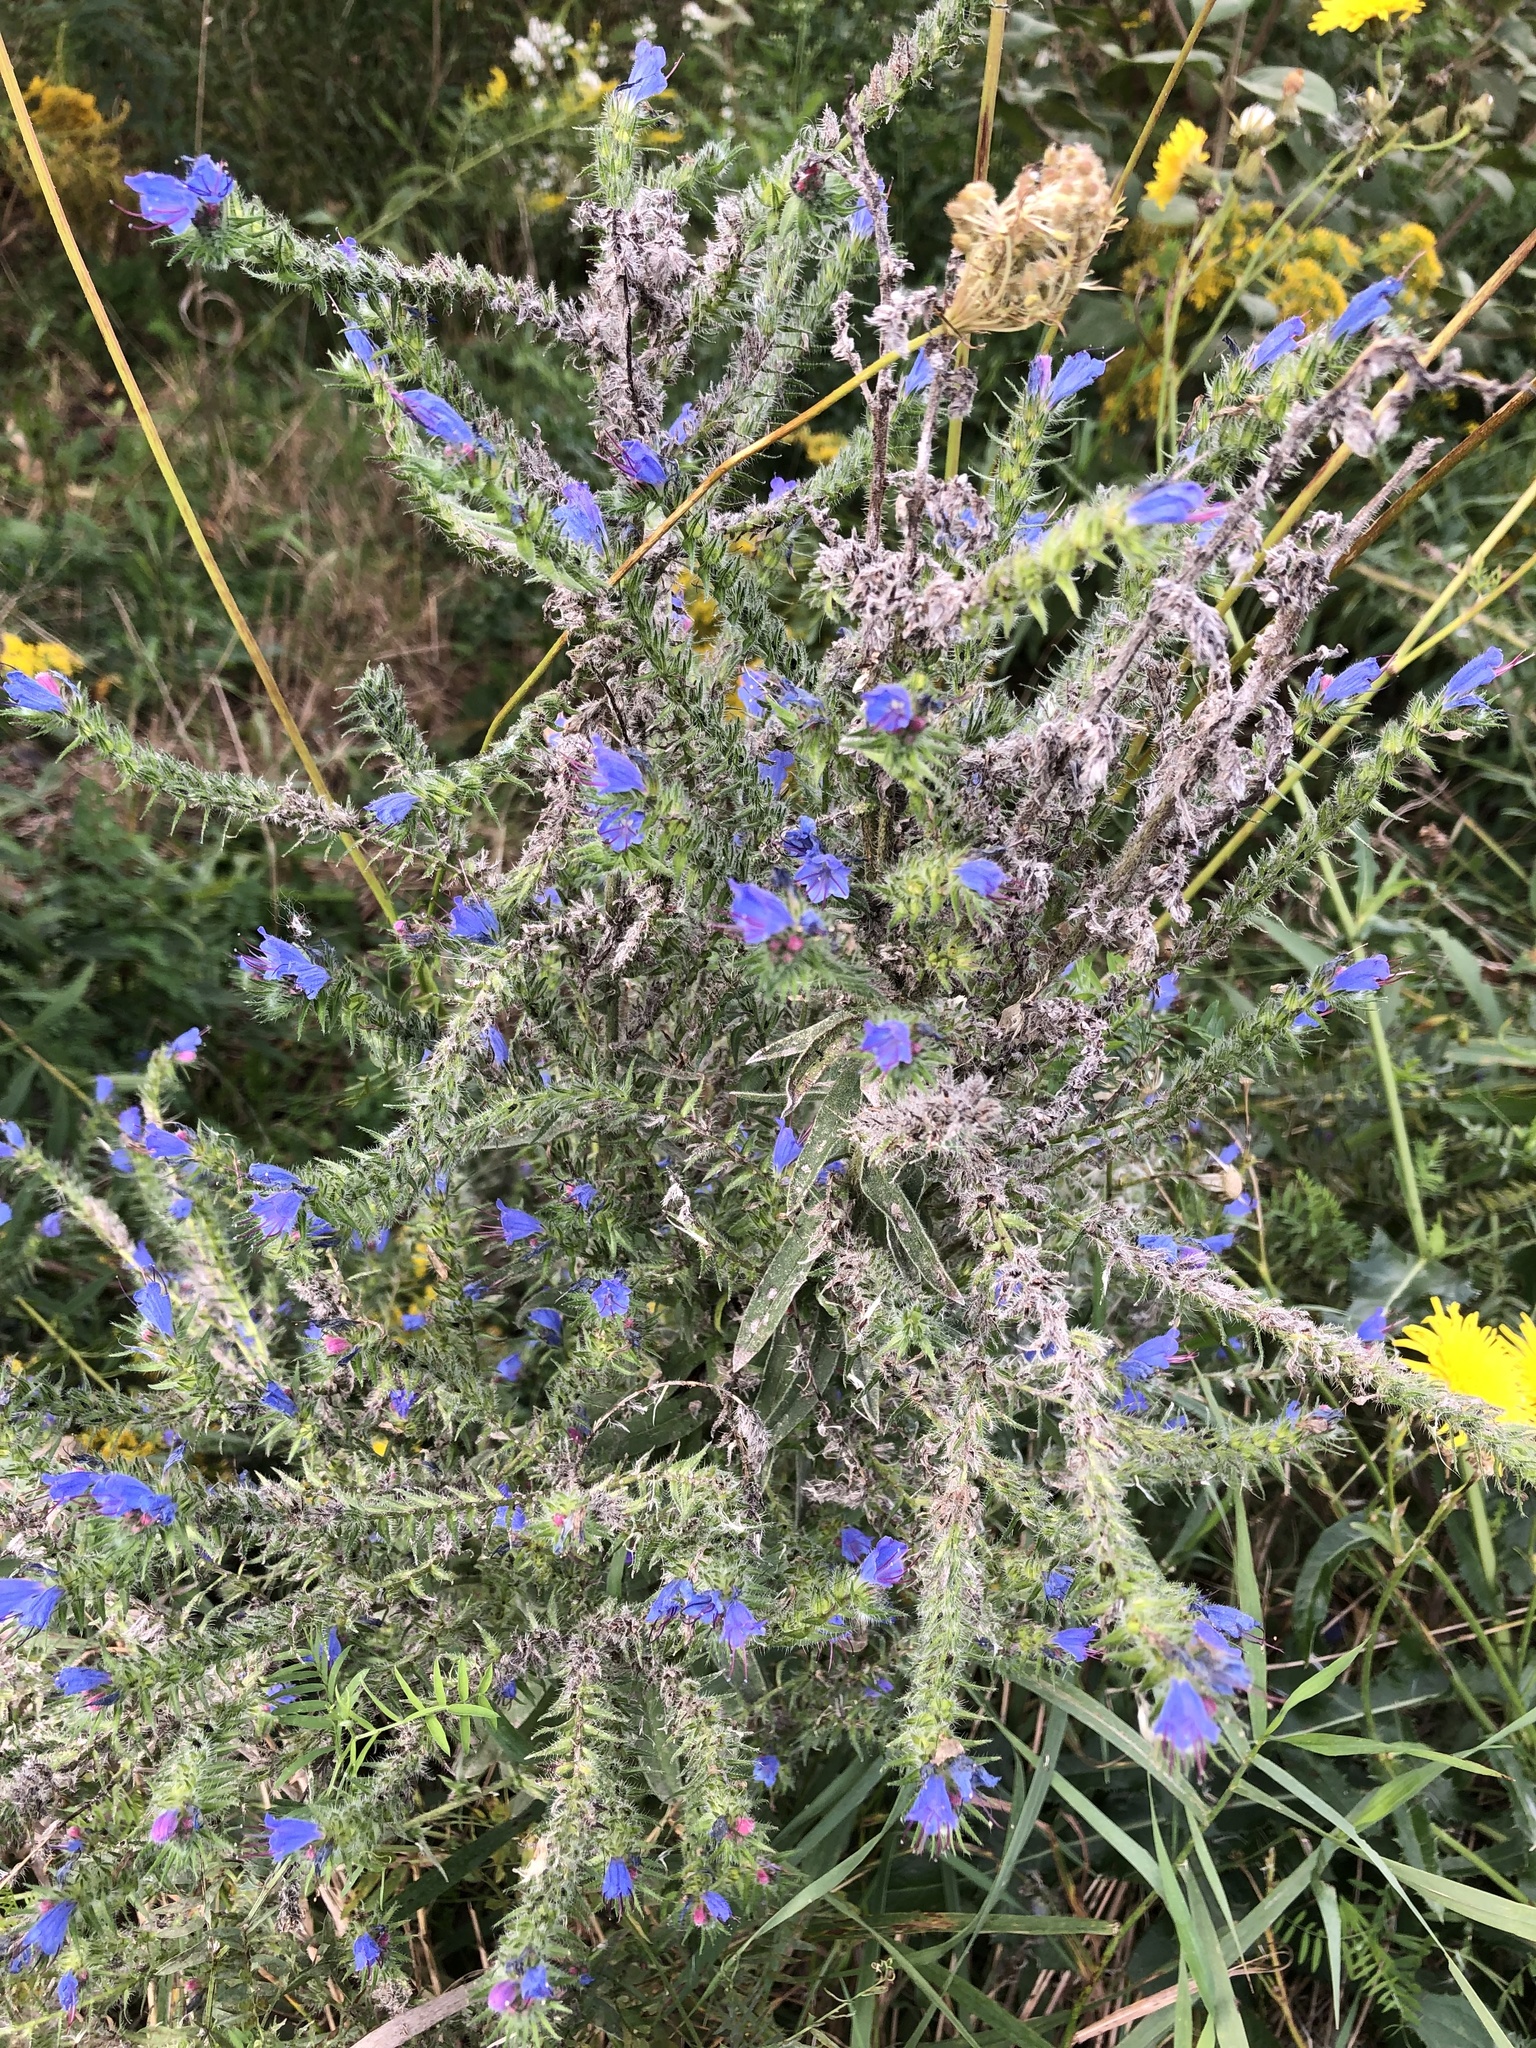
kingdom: Plantae
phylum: Tracheophyta
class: Magnoliopsida
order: Boraginales
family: Boraginaceae
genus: Echium
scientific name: Echium vulgare
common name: Common viper's bugloss
